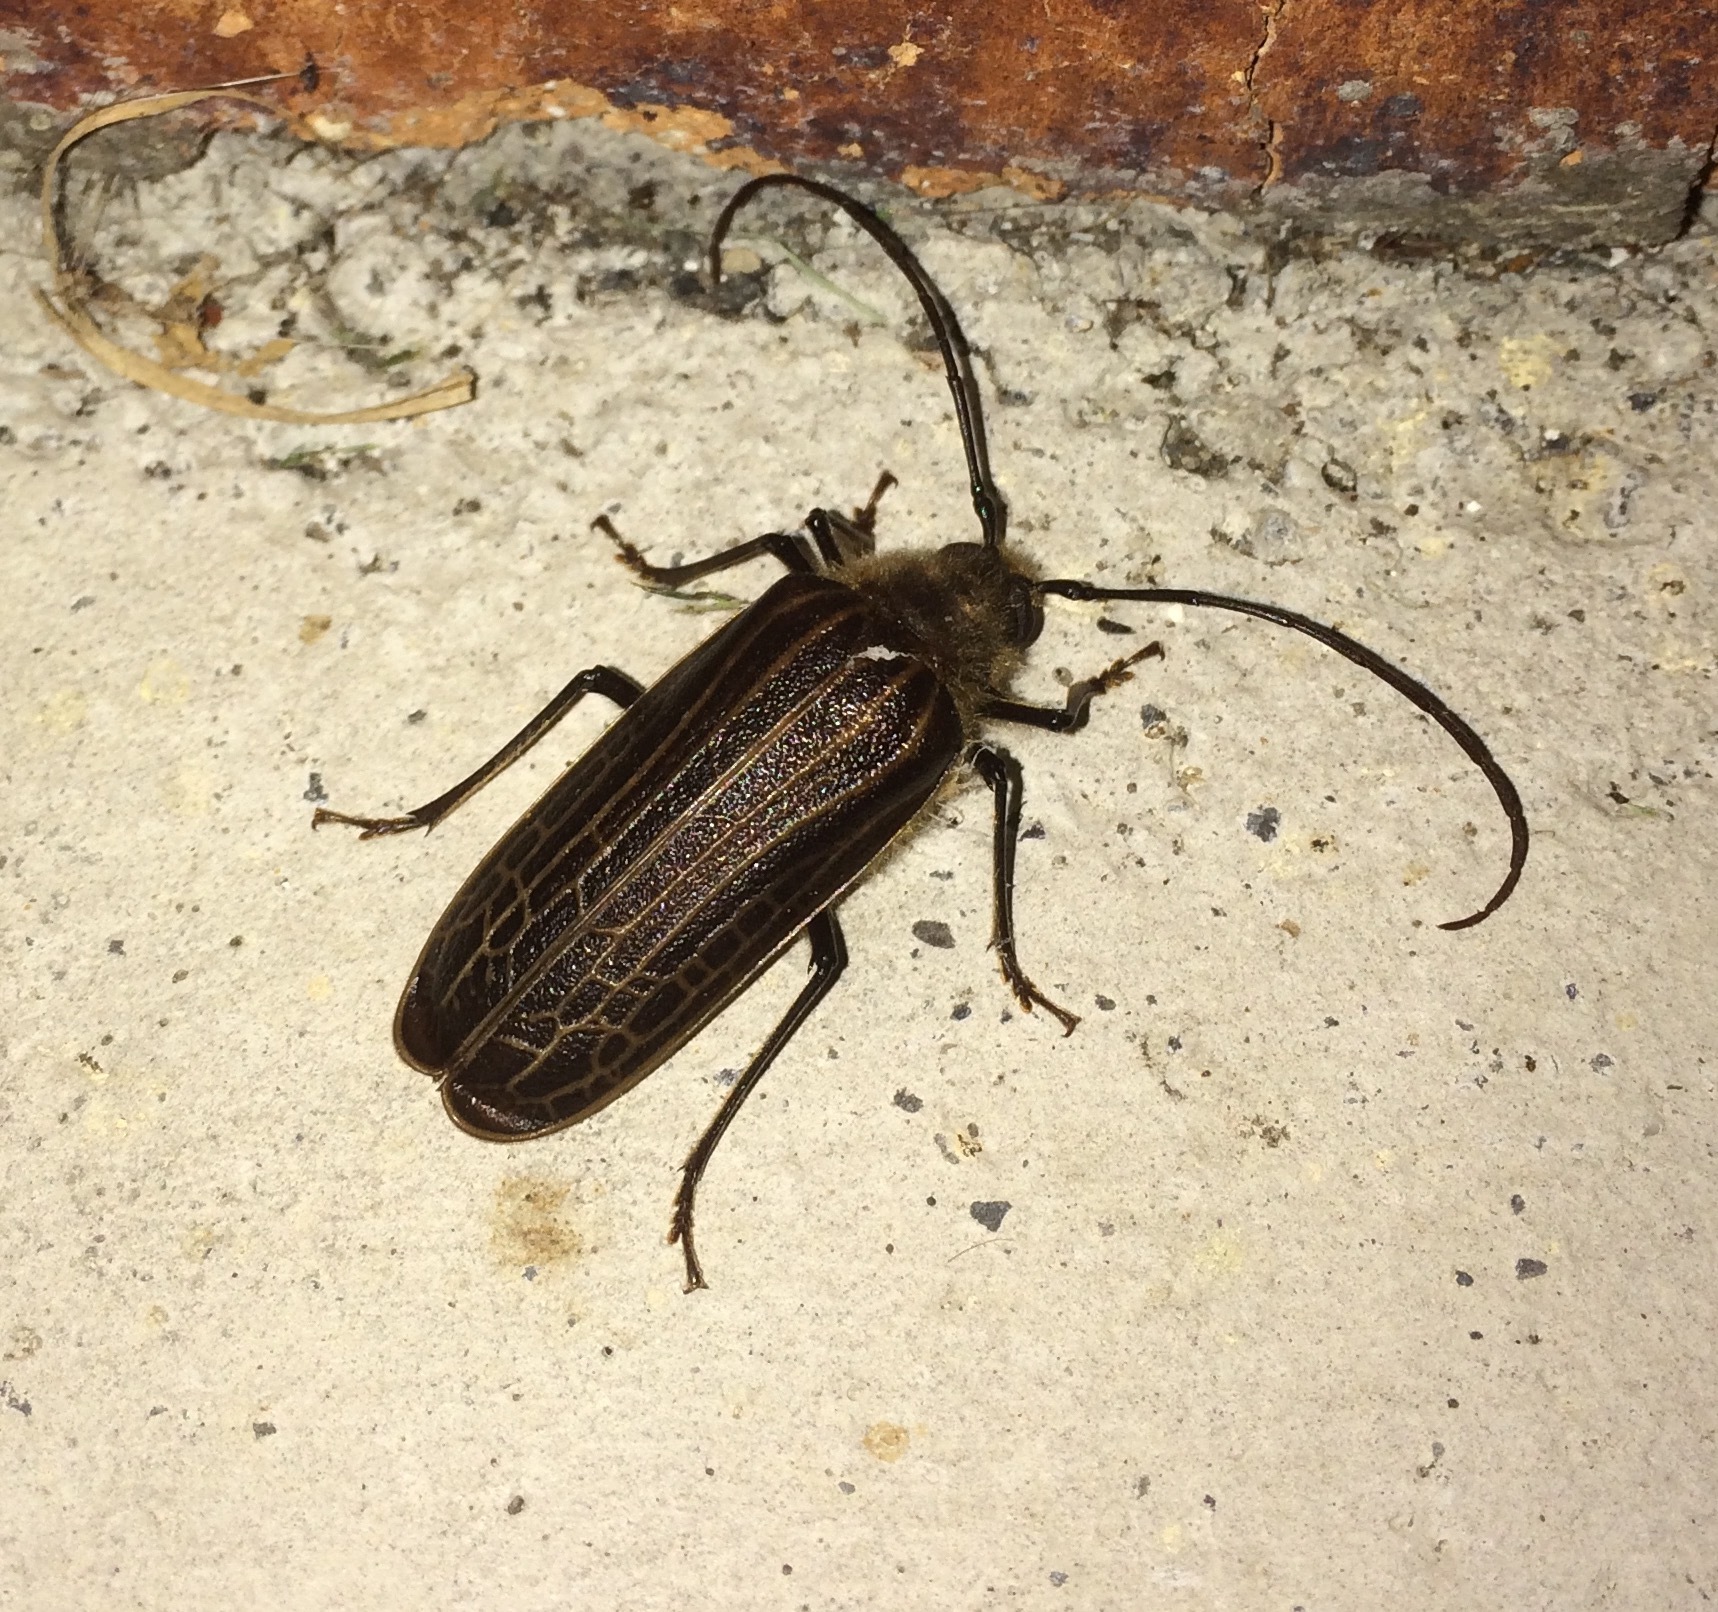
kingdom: Animalia
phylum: Arthropoda
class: Insecta
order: Coleoptera
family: Cerambycidae
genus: Prionoplus
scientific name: Prionoplus reticularis
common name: Huhu beetle
